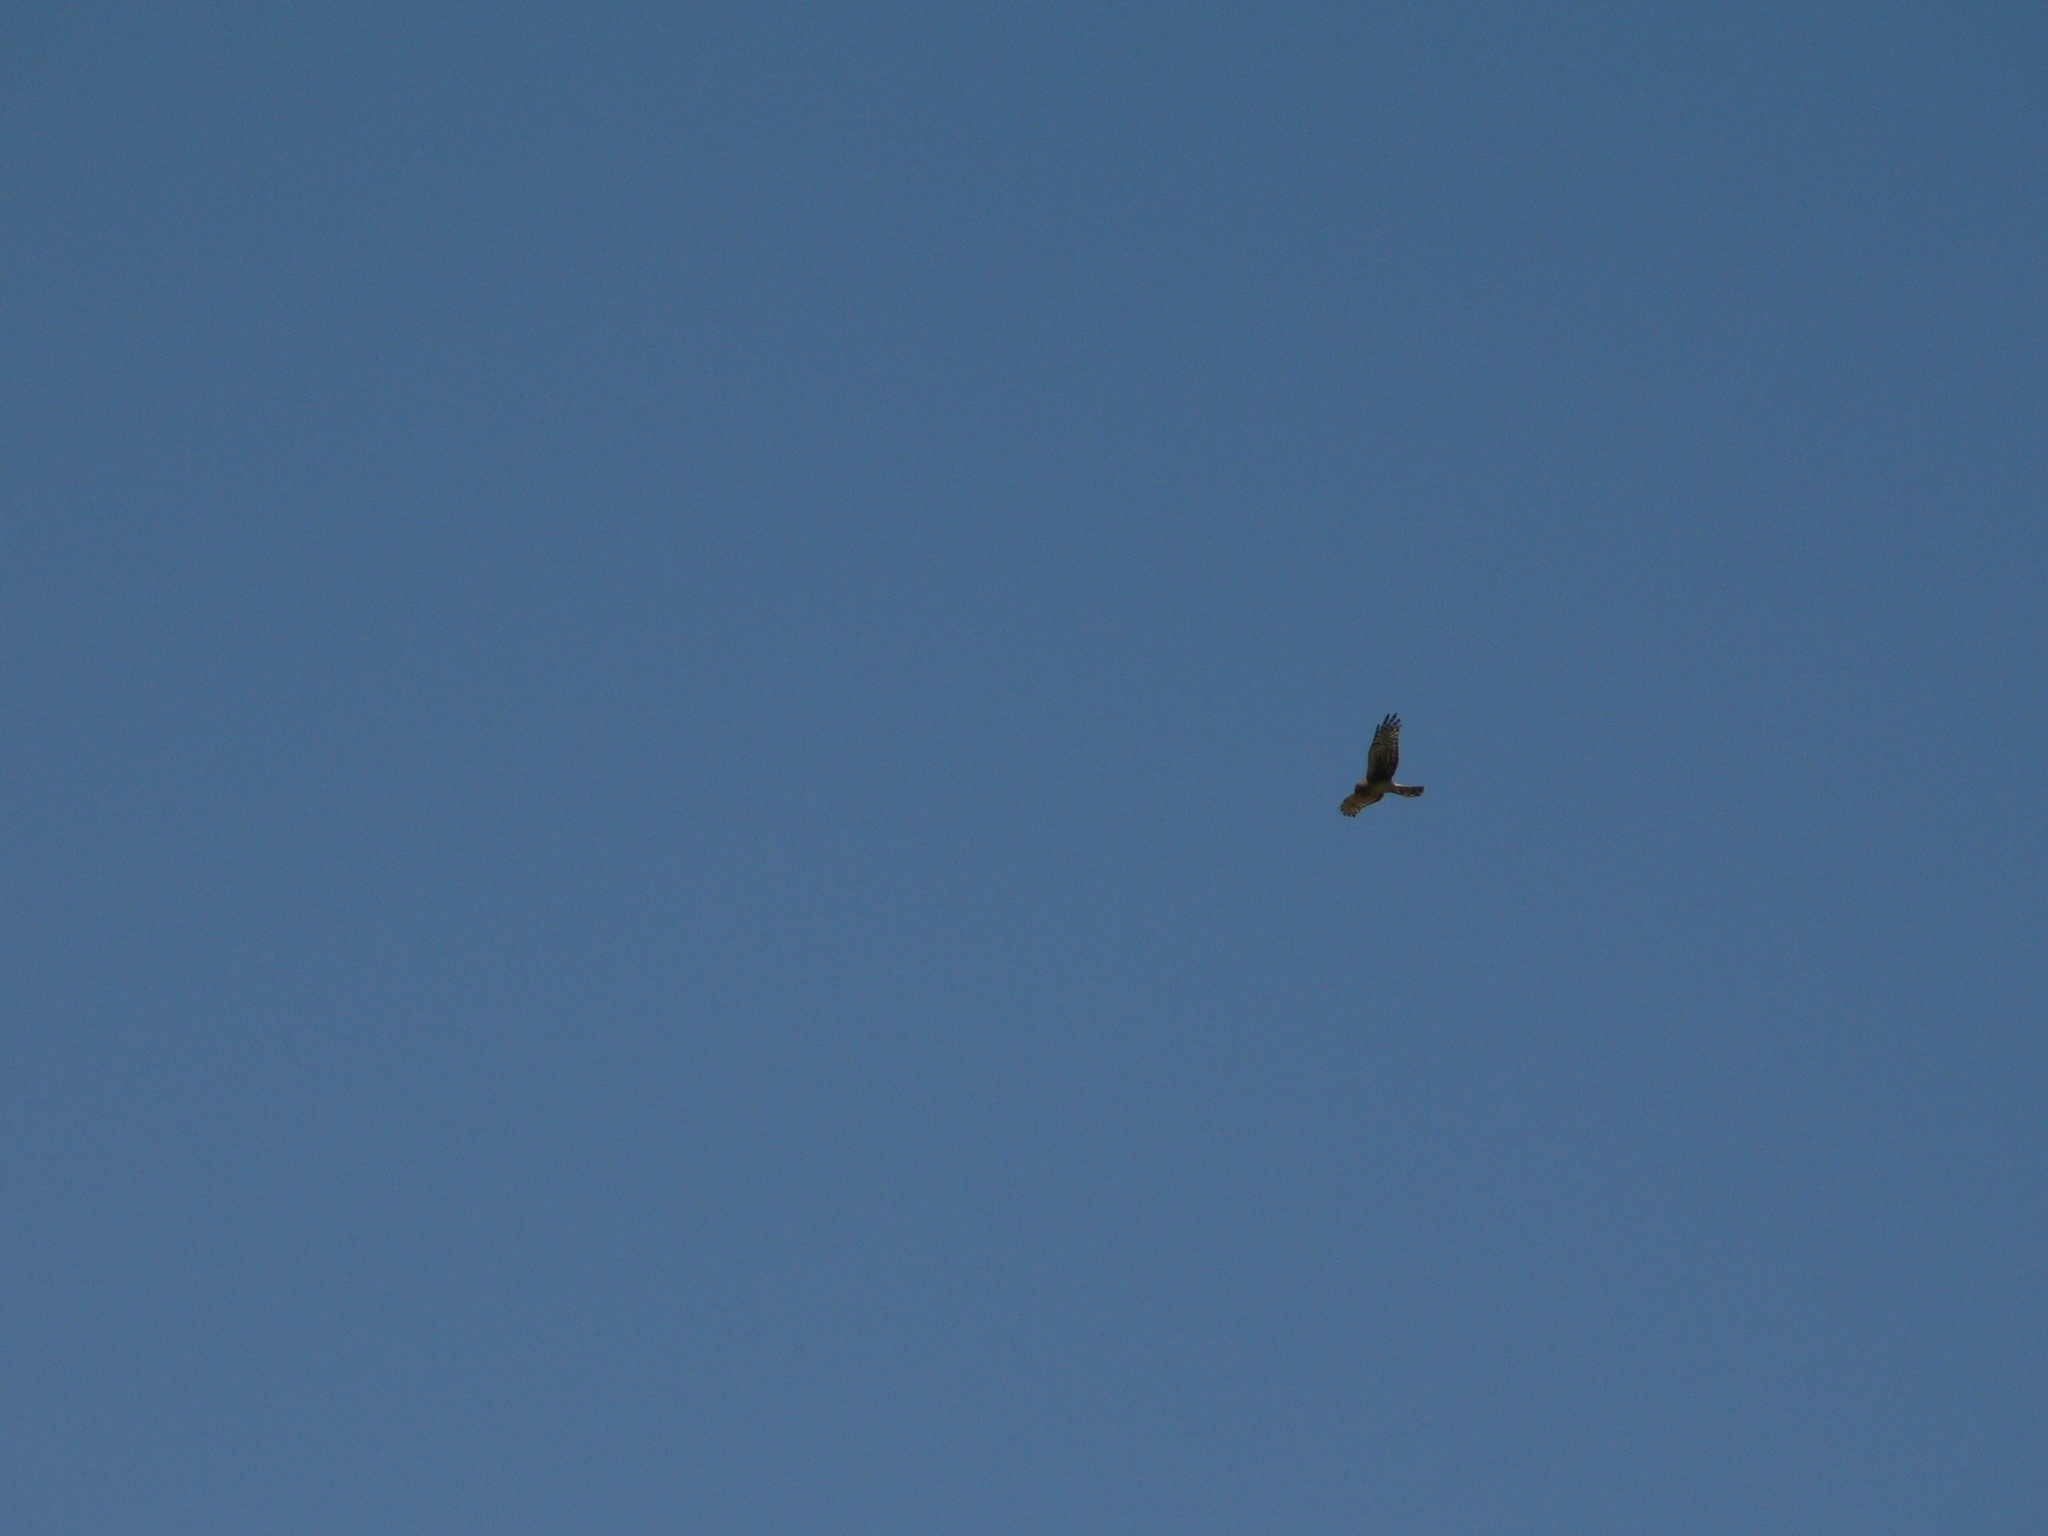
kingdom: Animalia
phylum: Chordata
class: Aves
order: Accipitriformes
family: Accipitridae
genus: Circus
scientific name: Circus cyaneus
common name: Hen harrier
